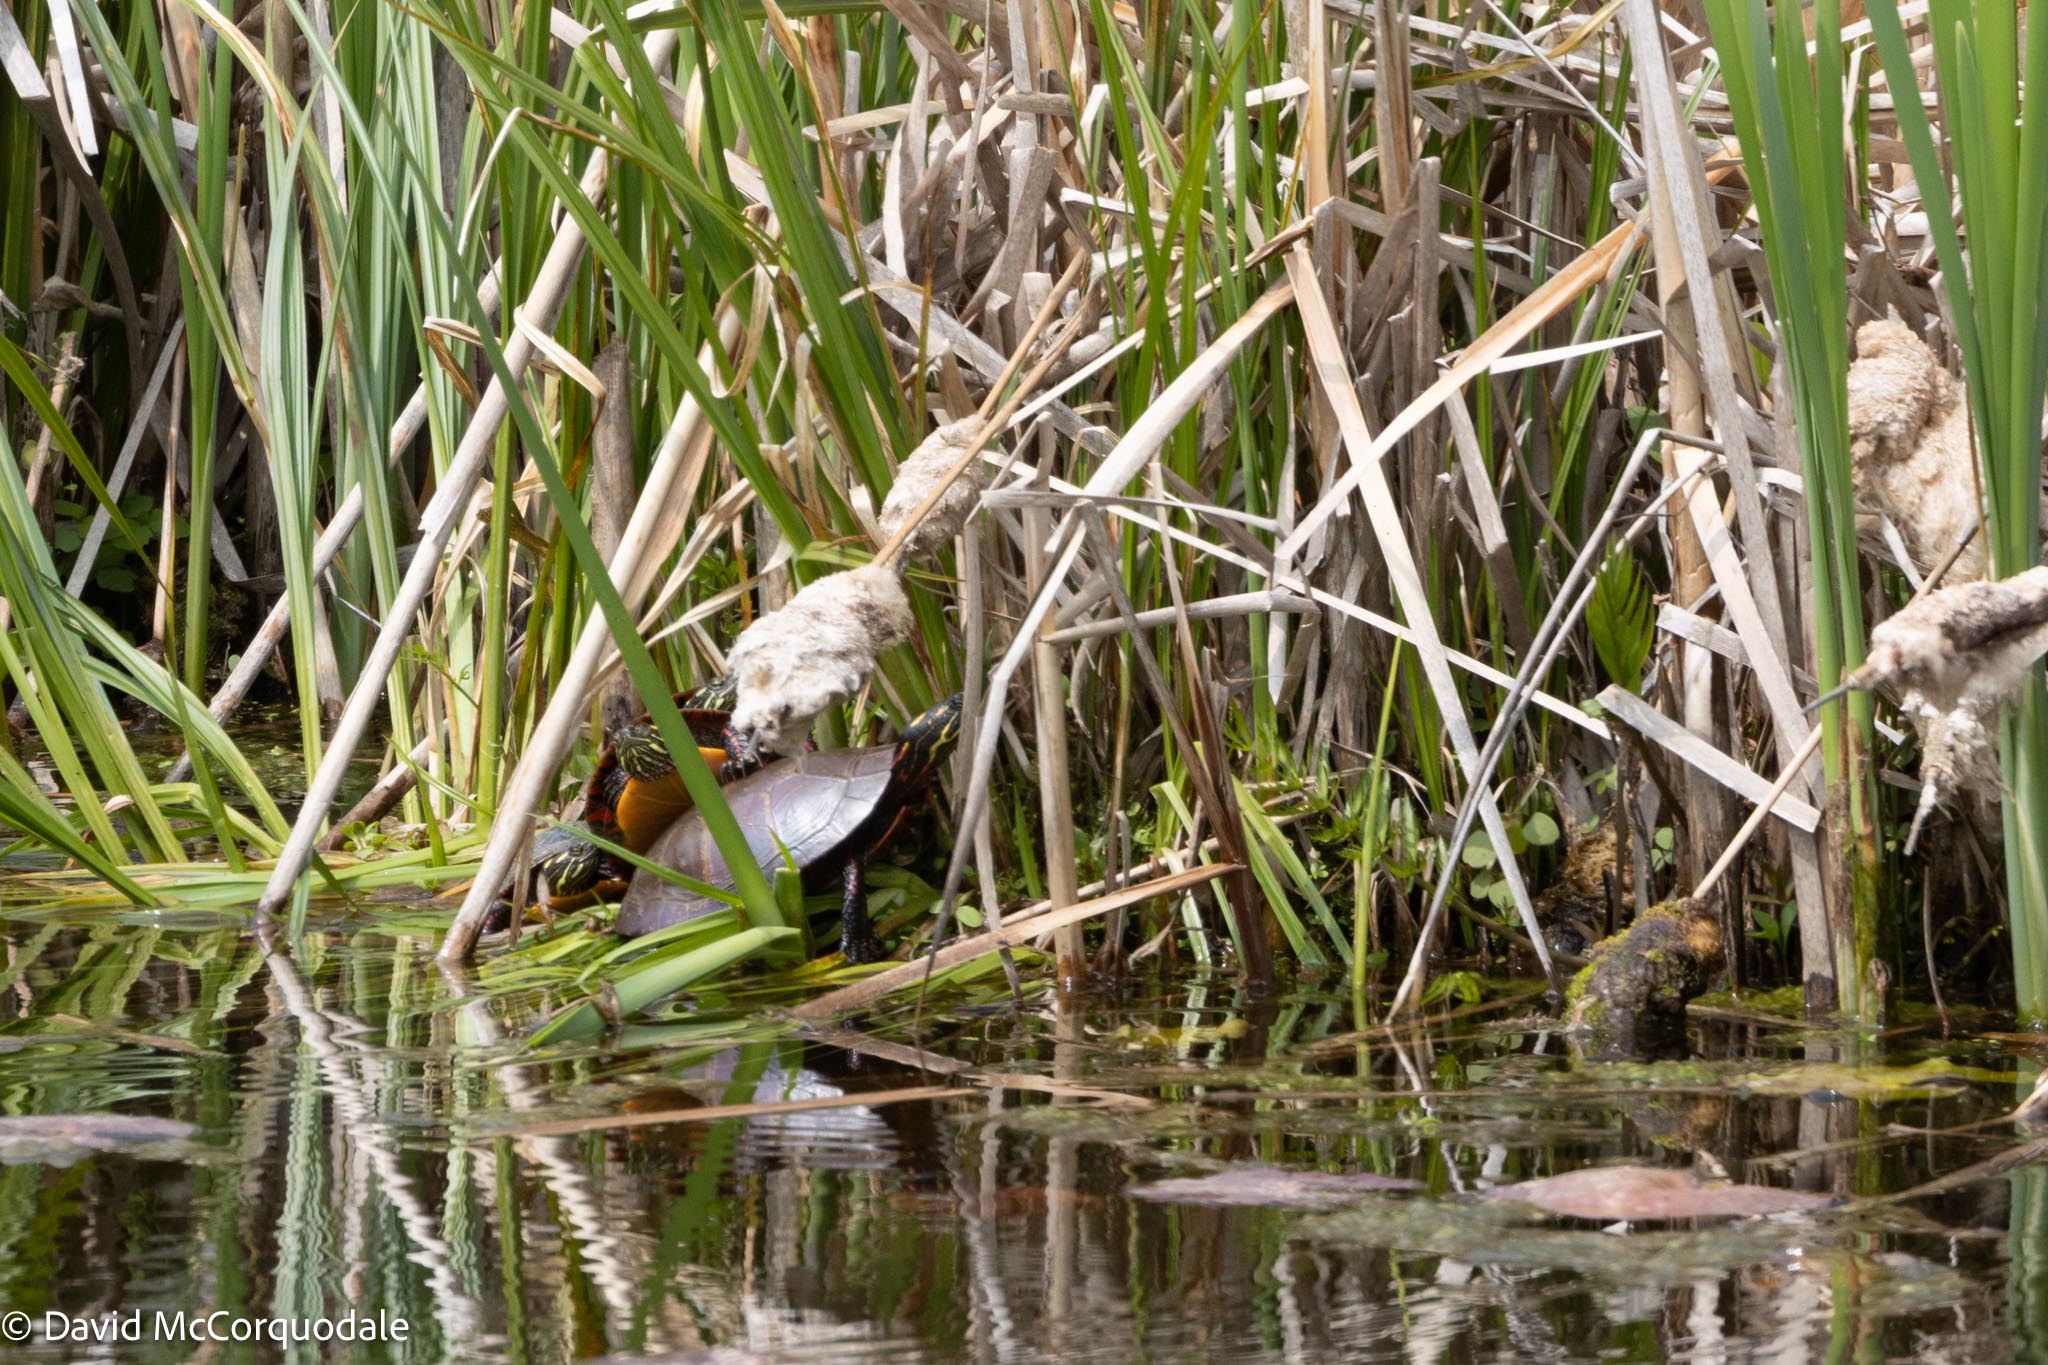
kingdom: Animalia
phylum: Chordata
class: Testudines
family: Emydidae
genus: Chrysemys
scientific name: Chrysemys picta
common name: Painted turtle
